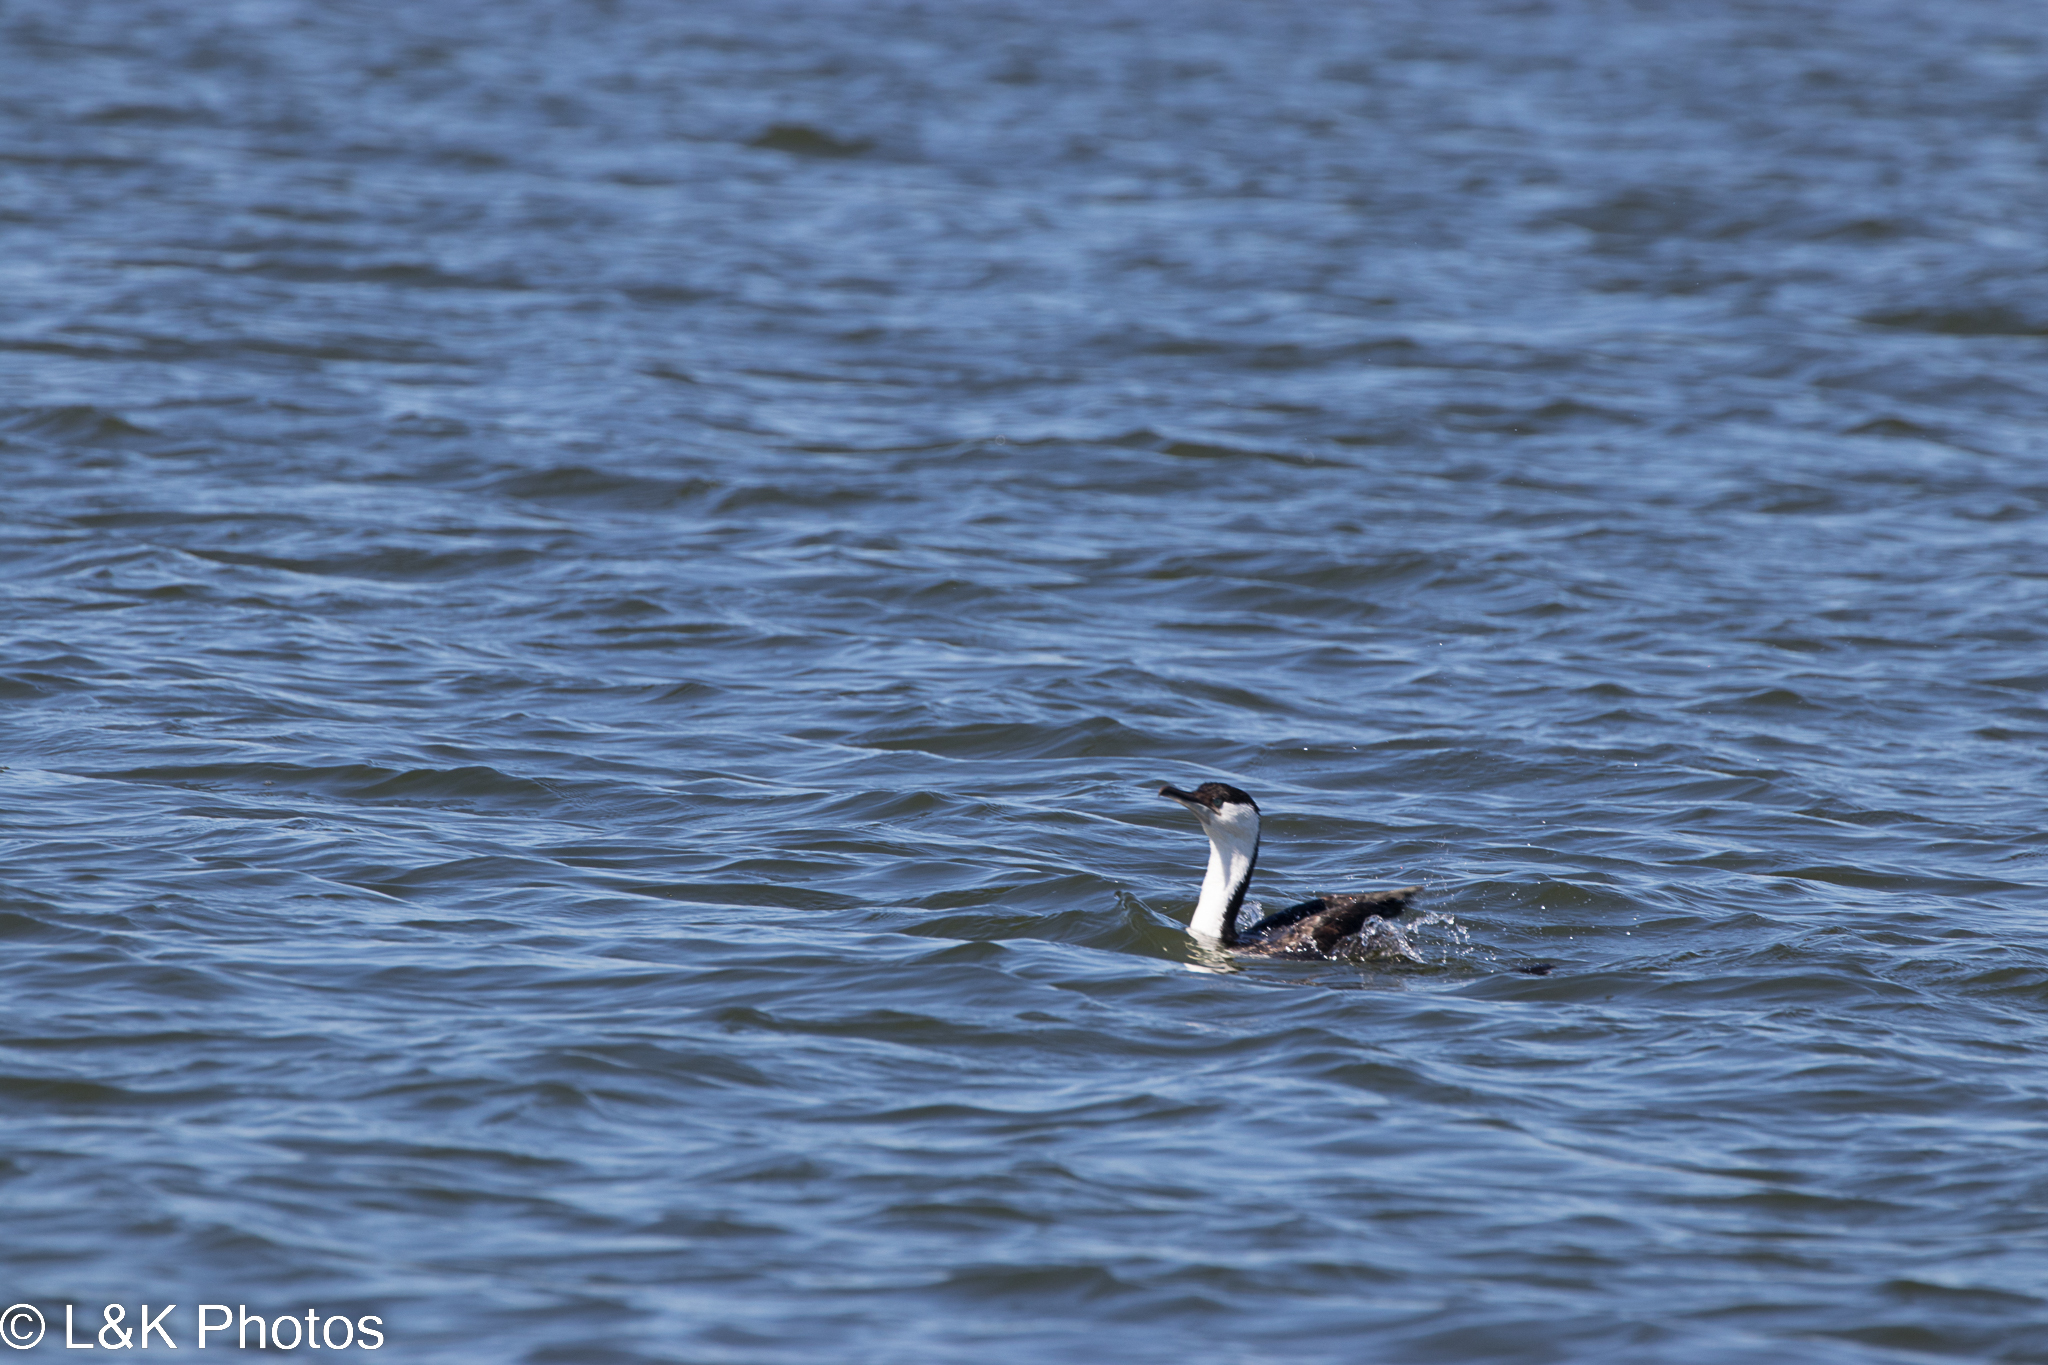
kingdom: Animalia
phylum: Chordata
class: Aves
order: Suliformes
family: Phalacrocoracidae
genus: Phalacrocorax
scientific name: Phalacrocorax fuscescens
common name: Black-faced cormorant
